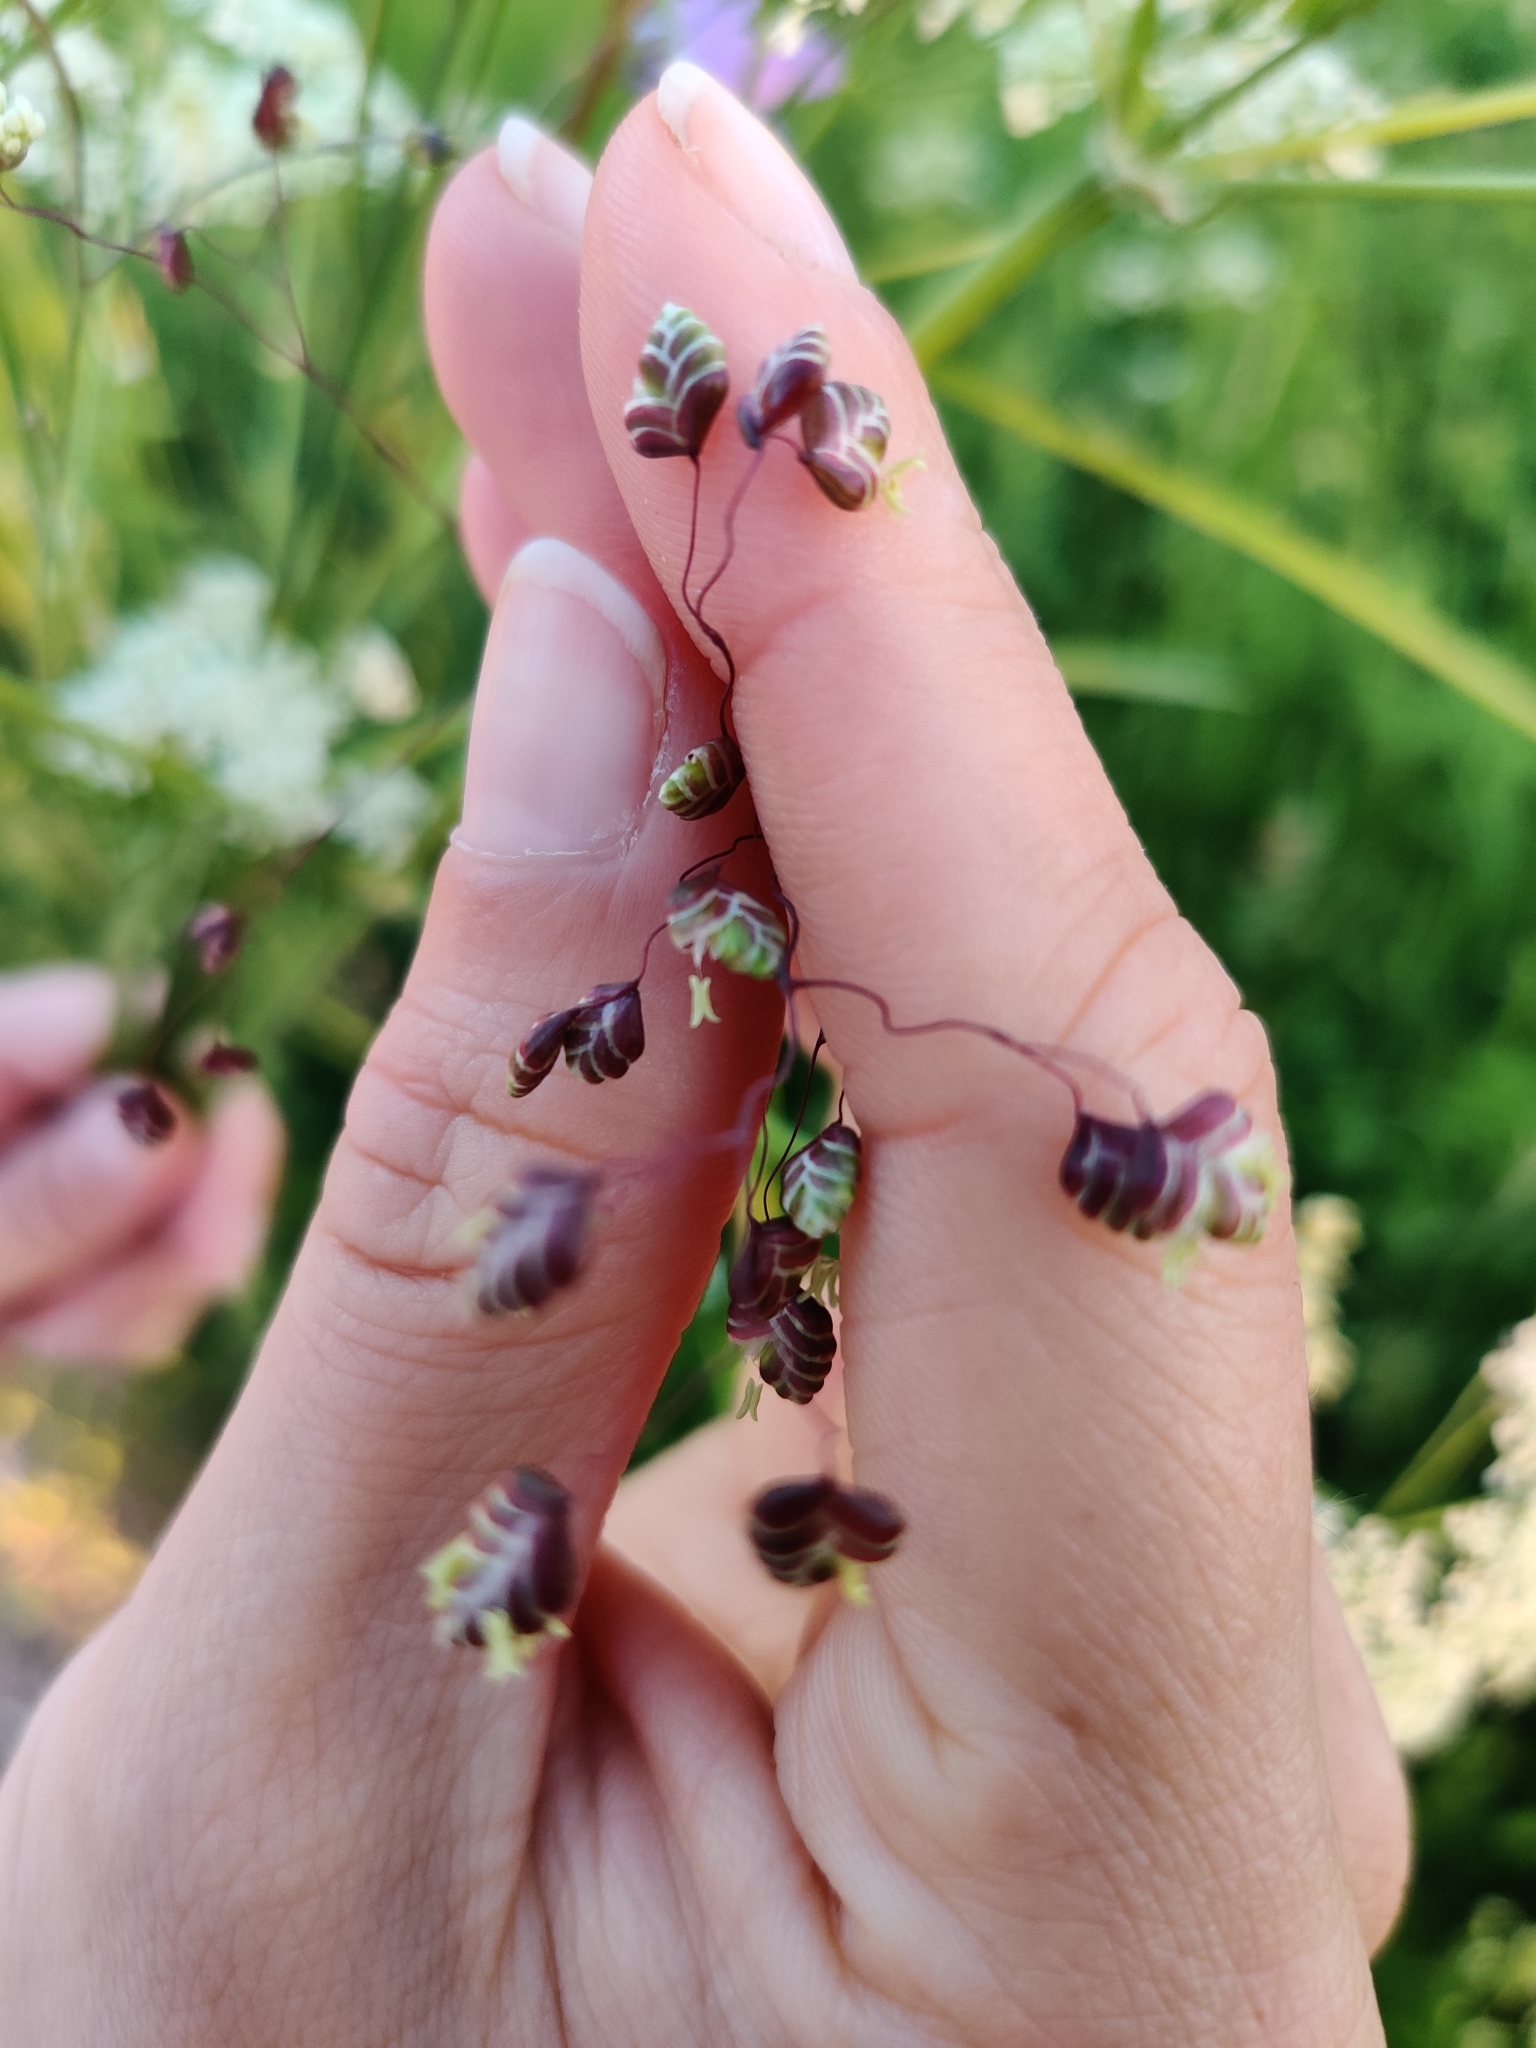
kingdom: Plantae
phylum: Tracheophyta
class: Liliopsida
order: Poales
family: Poaceae
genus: Briza
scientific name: Briza media
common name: Quaking grass
